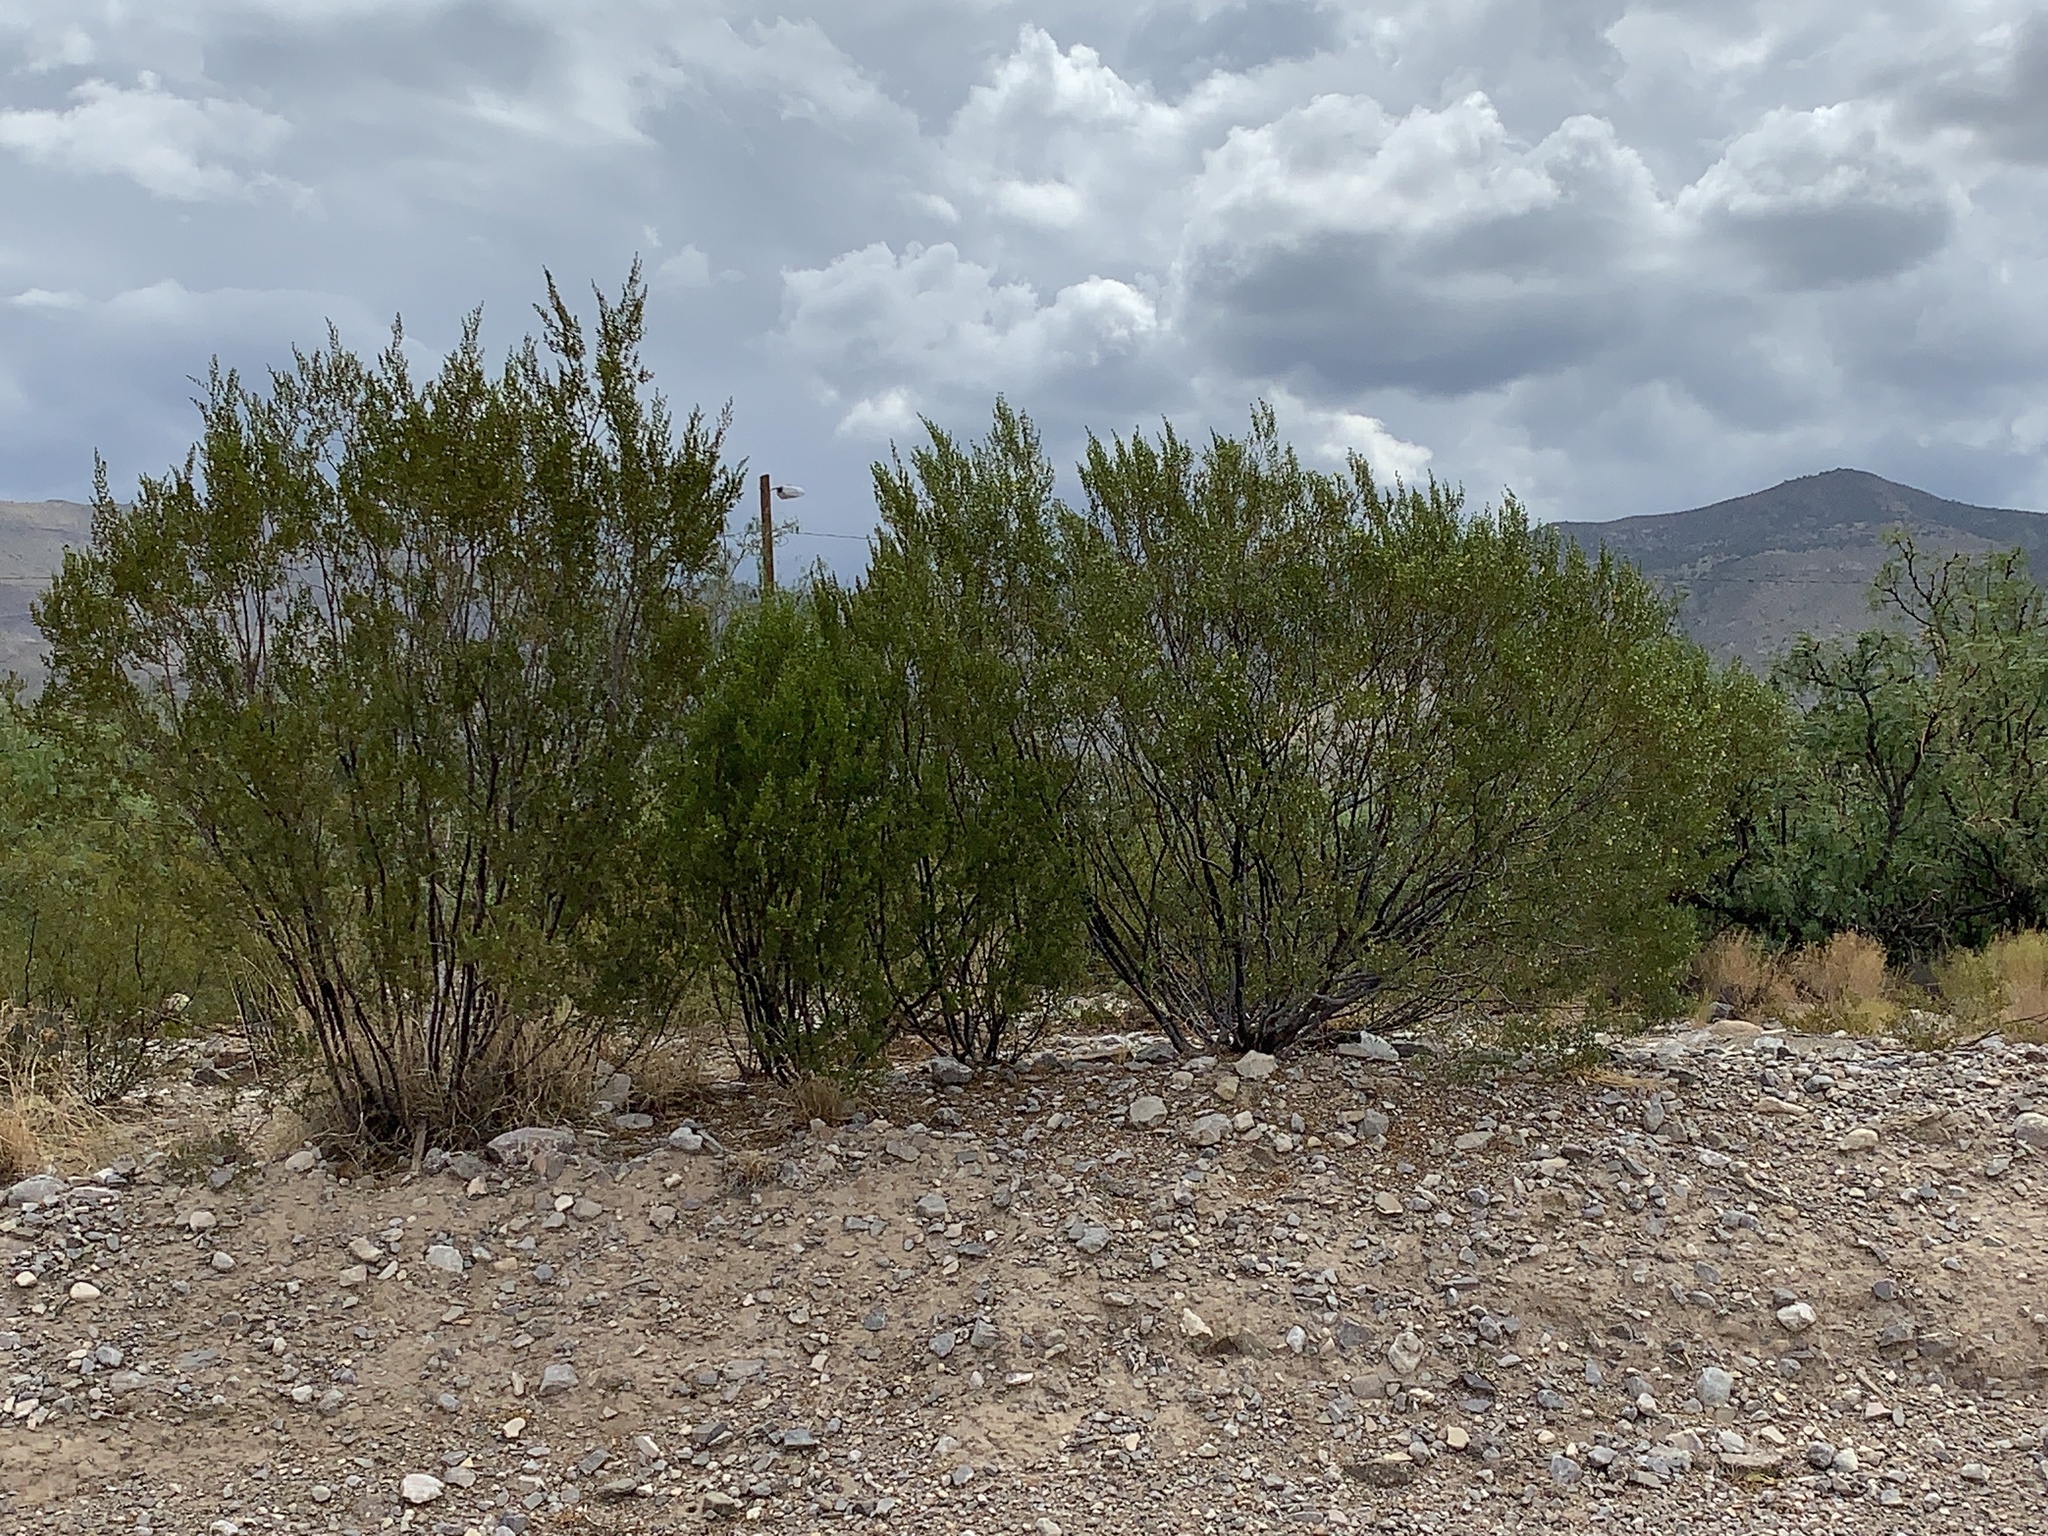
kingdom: Plantae
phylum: Tracheophyta
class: Magnoliopsida
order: Zygophyllales
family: Zygophyllaceae
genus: Larrea
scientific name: Larrea tridentata
